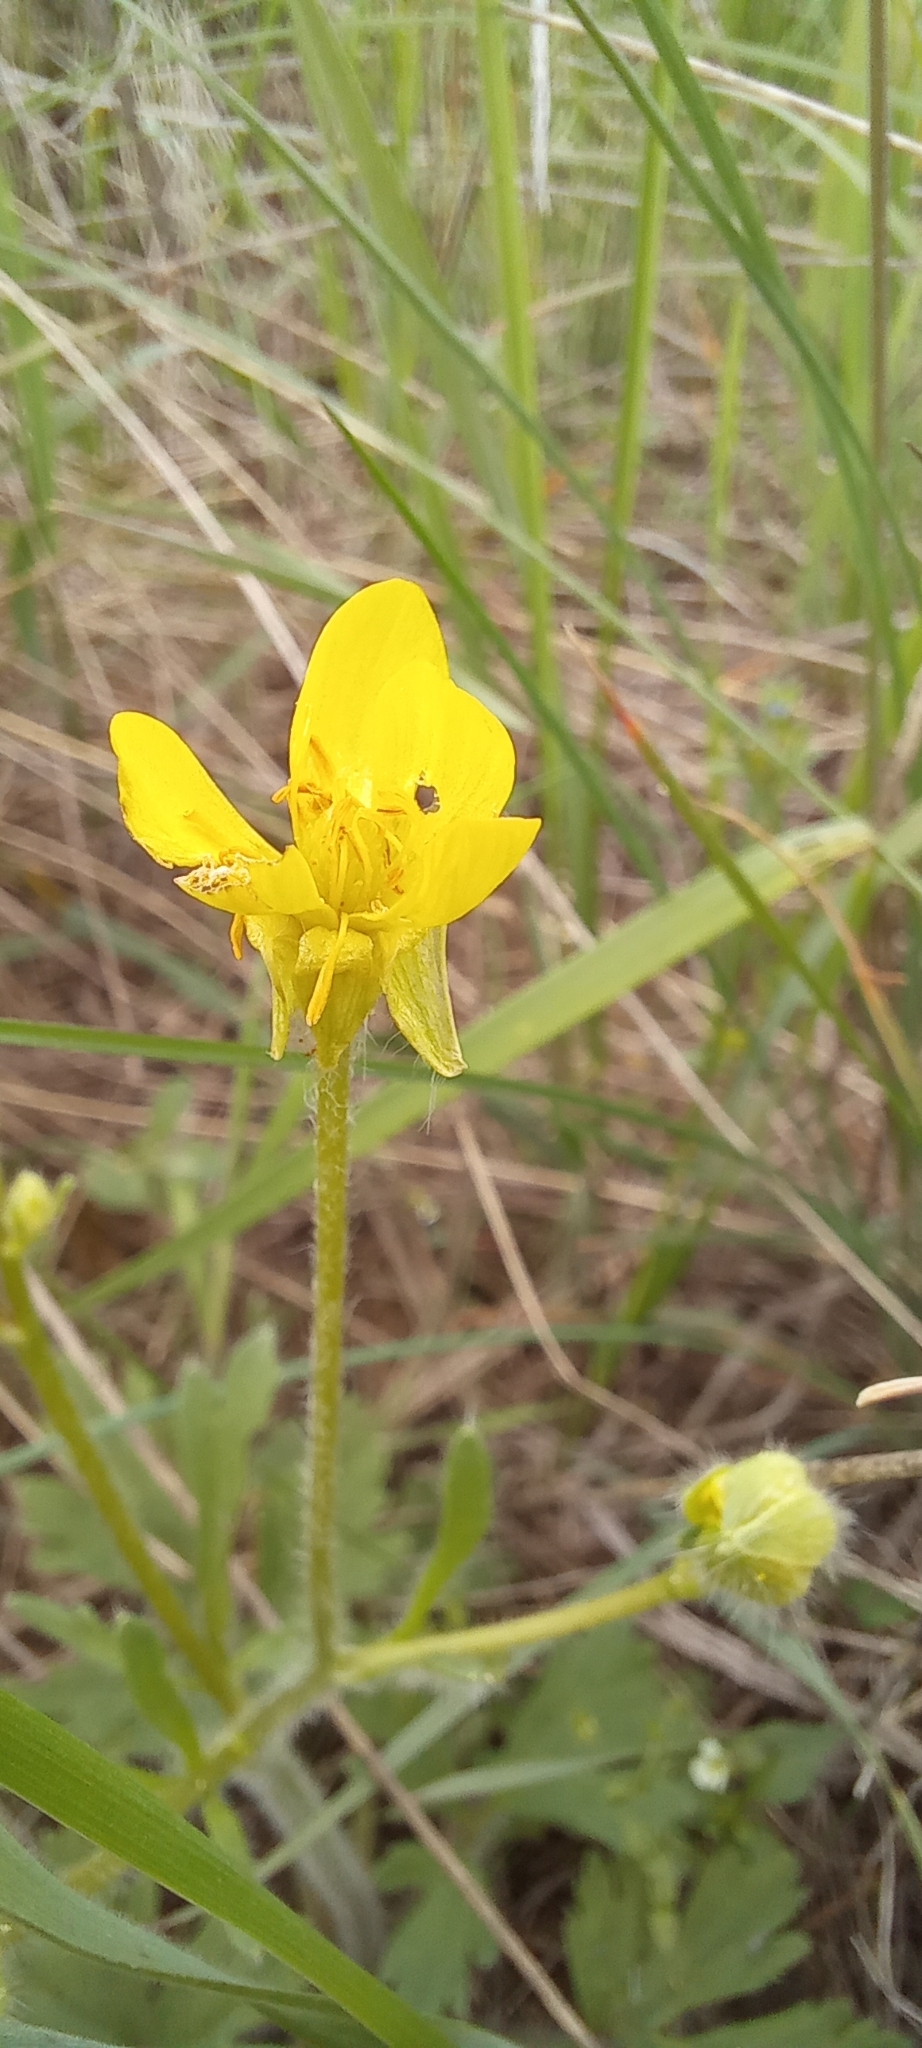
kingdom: Plantae
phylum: Tracheophyta
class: Magnoliopsida
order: Ranunculales
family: Ranunculaceae
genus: Ranunculus
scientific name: Ranunculus oxyspermus
